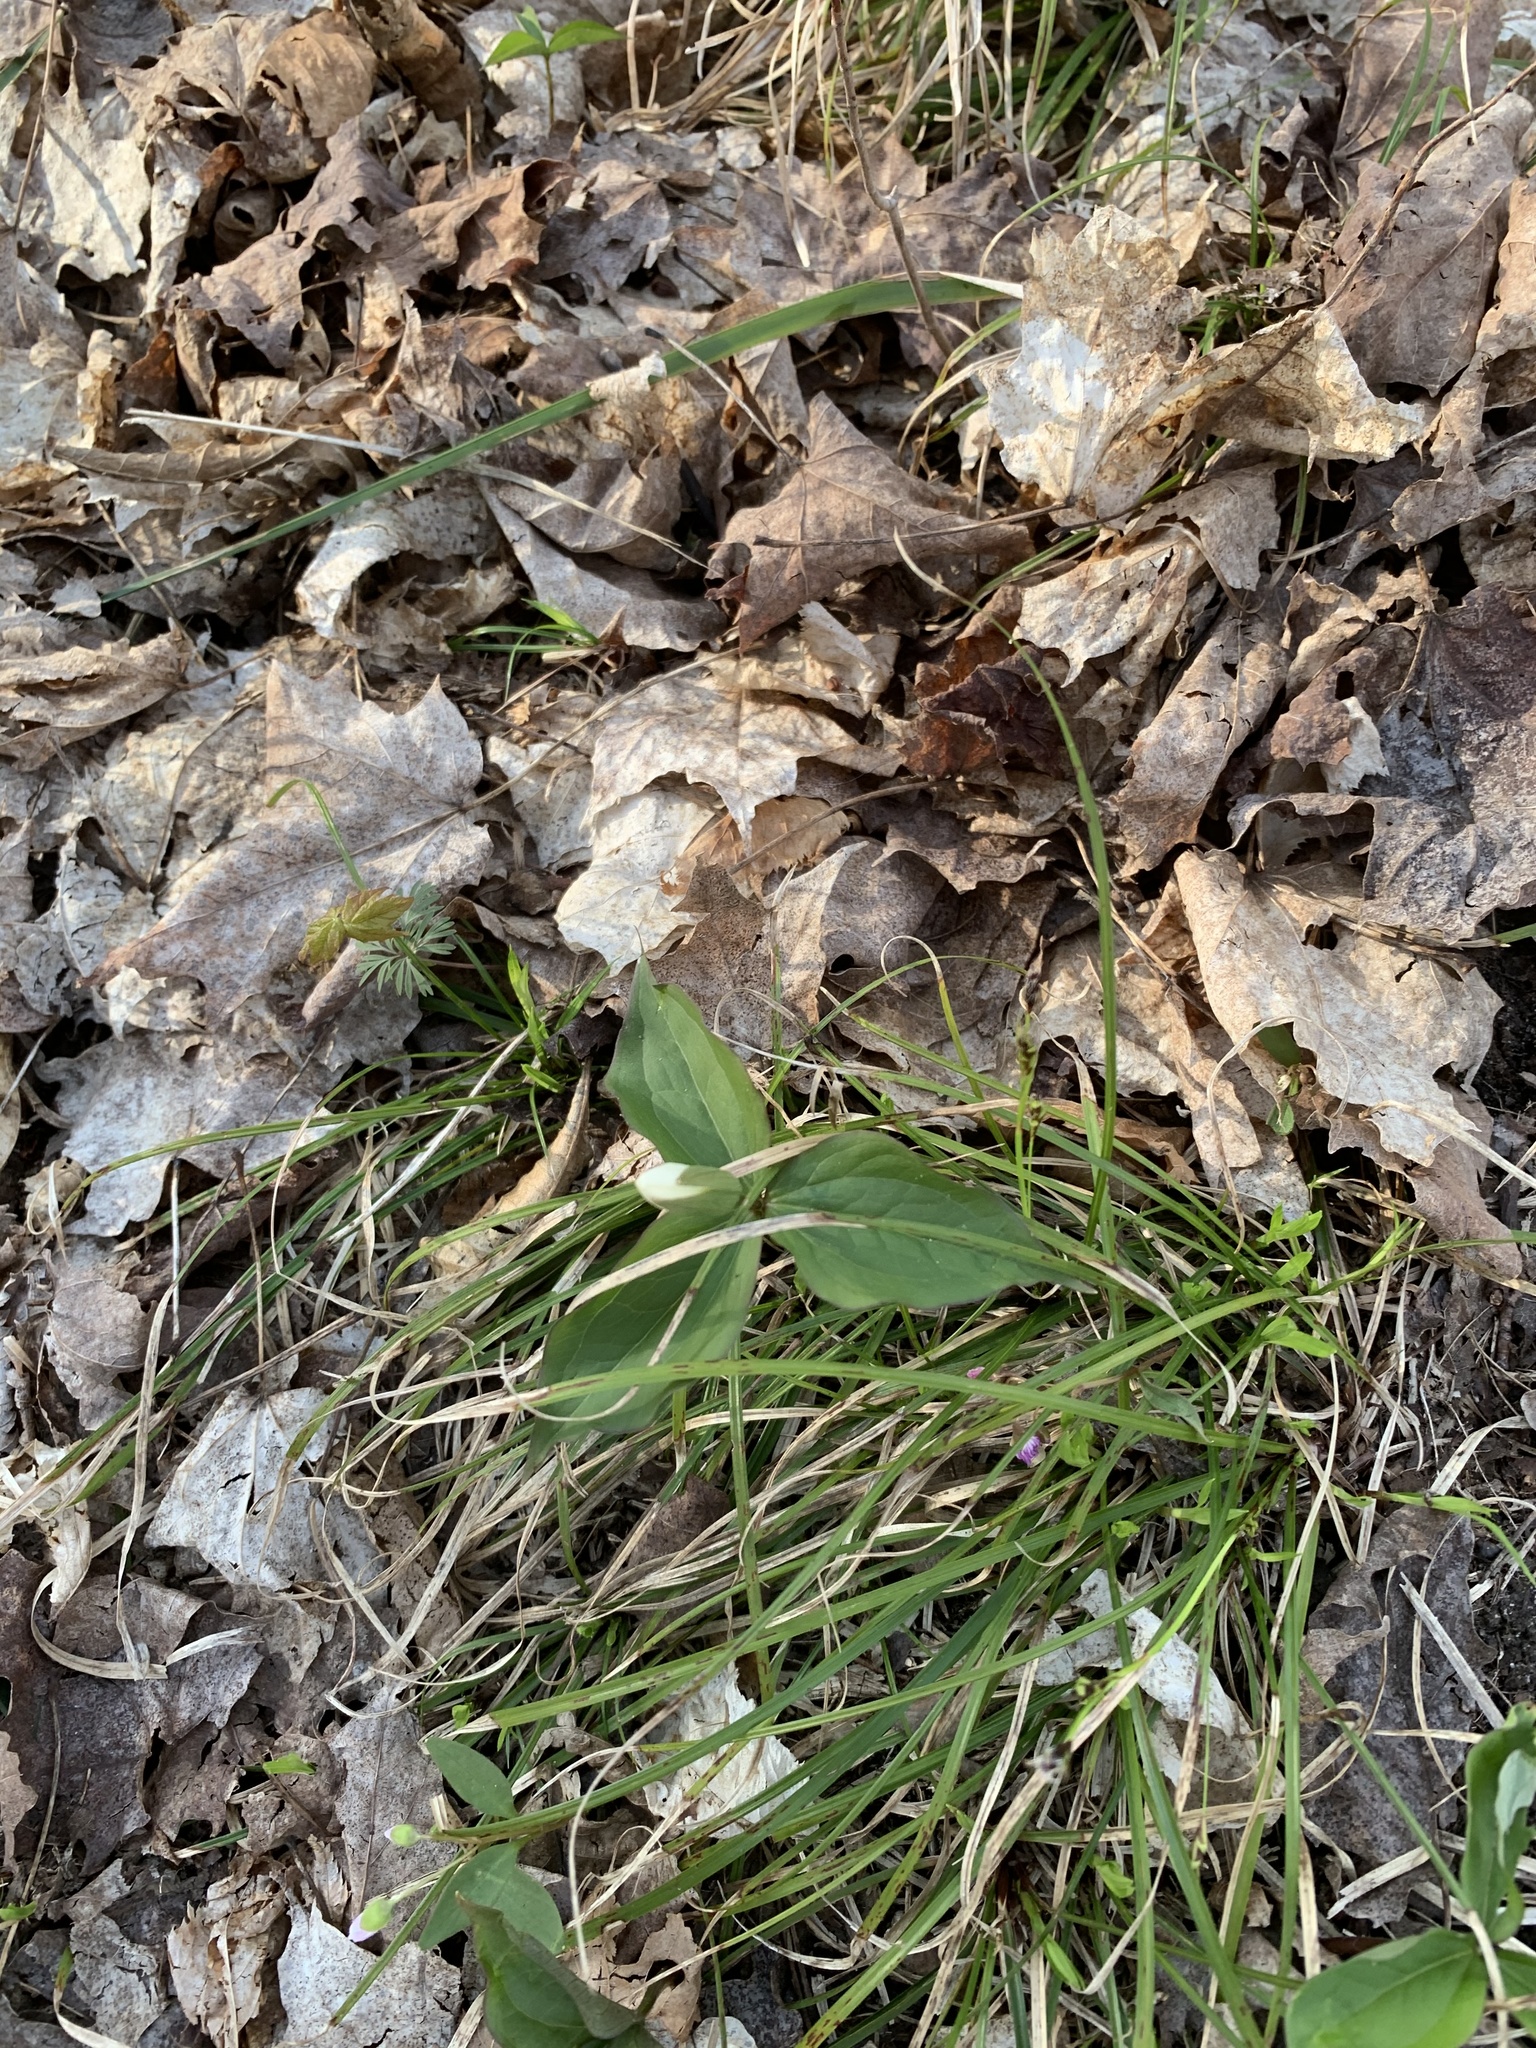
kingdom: Plantae
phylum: Tracheophyta
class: Liliopsida
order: Liliales
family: Melanthiaceae
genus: Trillium
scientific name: Trillium grandiflorum
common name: Great white trillium
